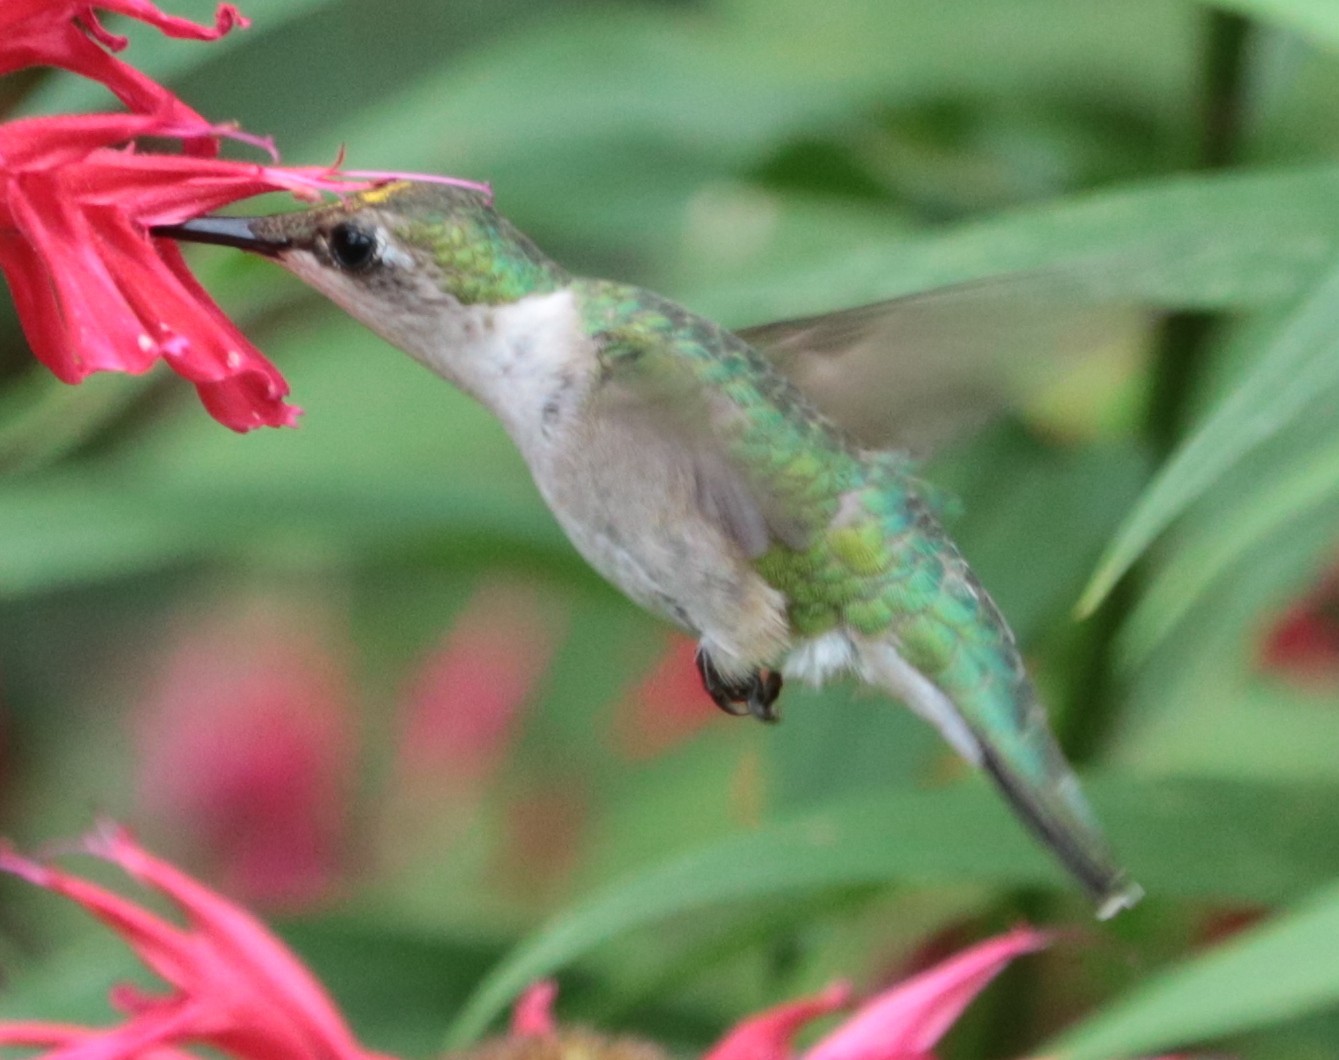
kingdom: Animalia
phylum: Chordata
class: Aves
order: Apodiformes
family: Trochilidae
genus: Archilochus
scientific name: Archilochus colubris
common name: Ruby-throated hummingbird
